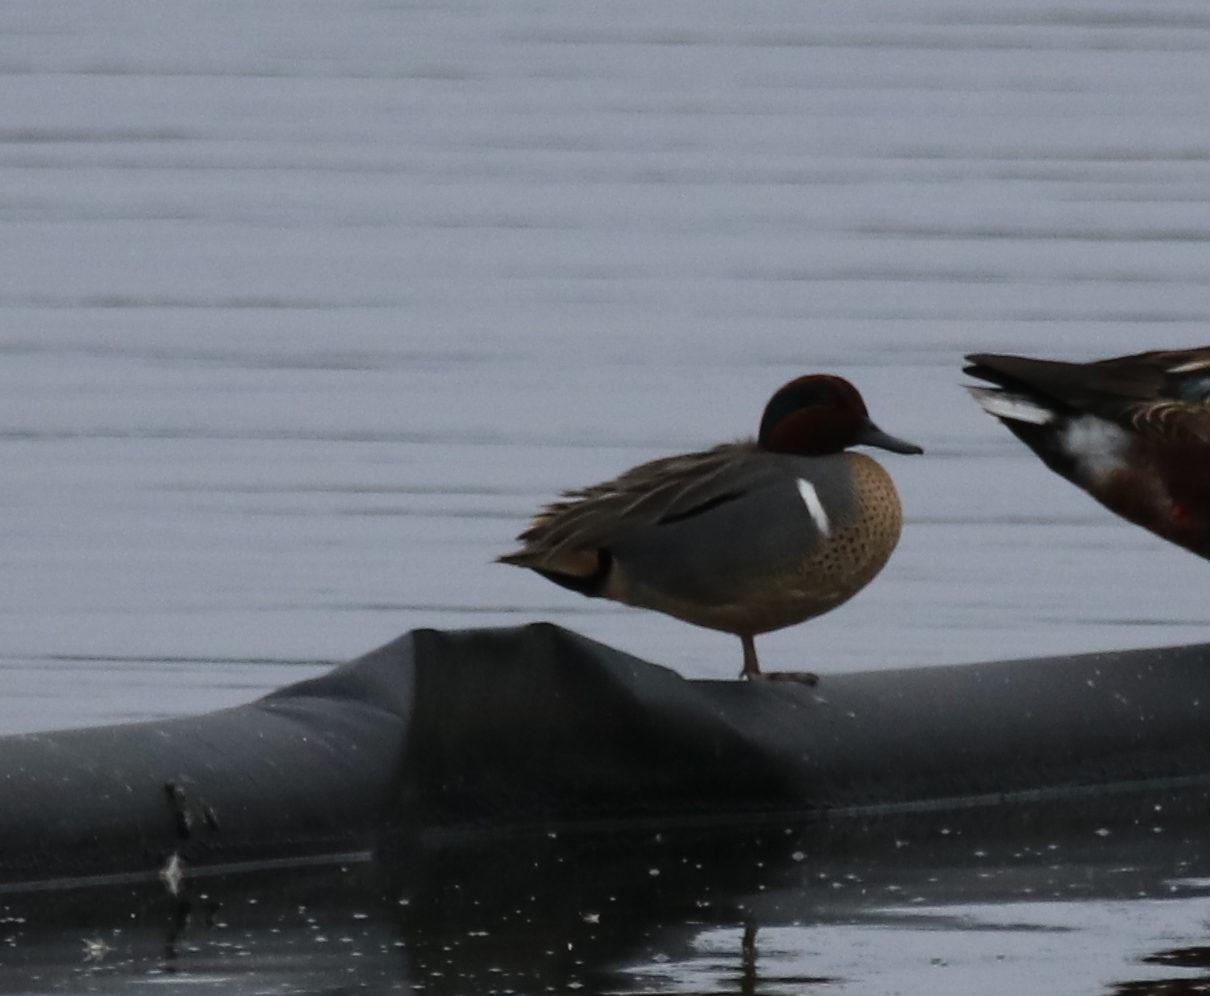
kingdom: Animalia
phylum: Chordata
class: Aves
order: Anseriformes
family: Anatidae
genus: Anas
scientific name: Anas crecca
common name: Eurasian teal
